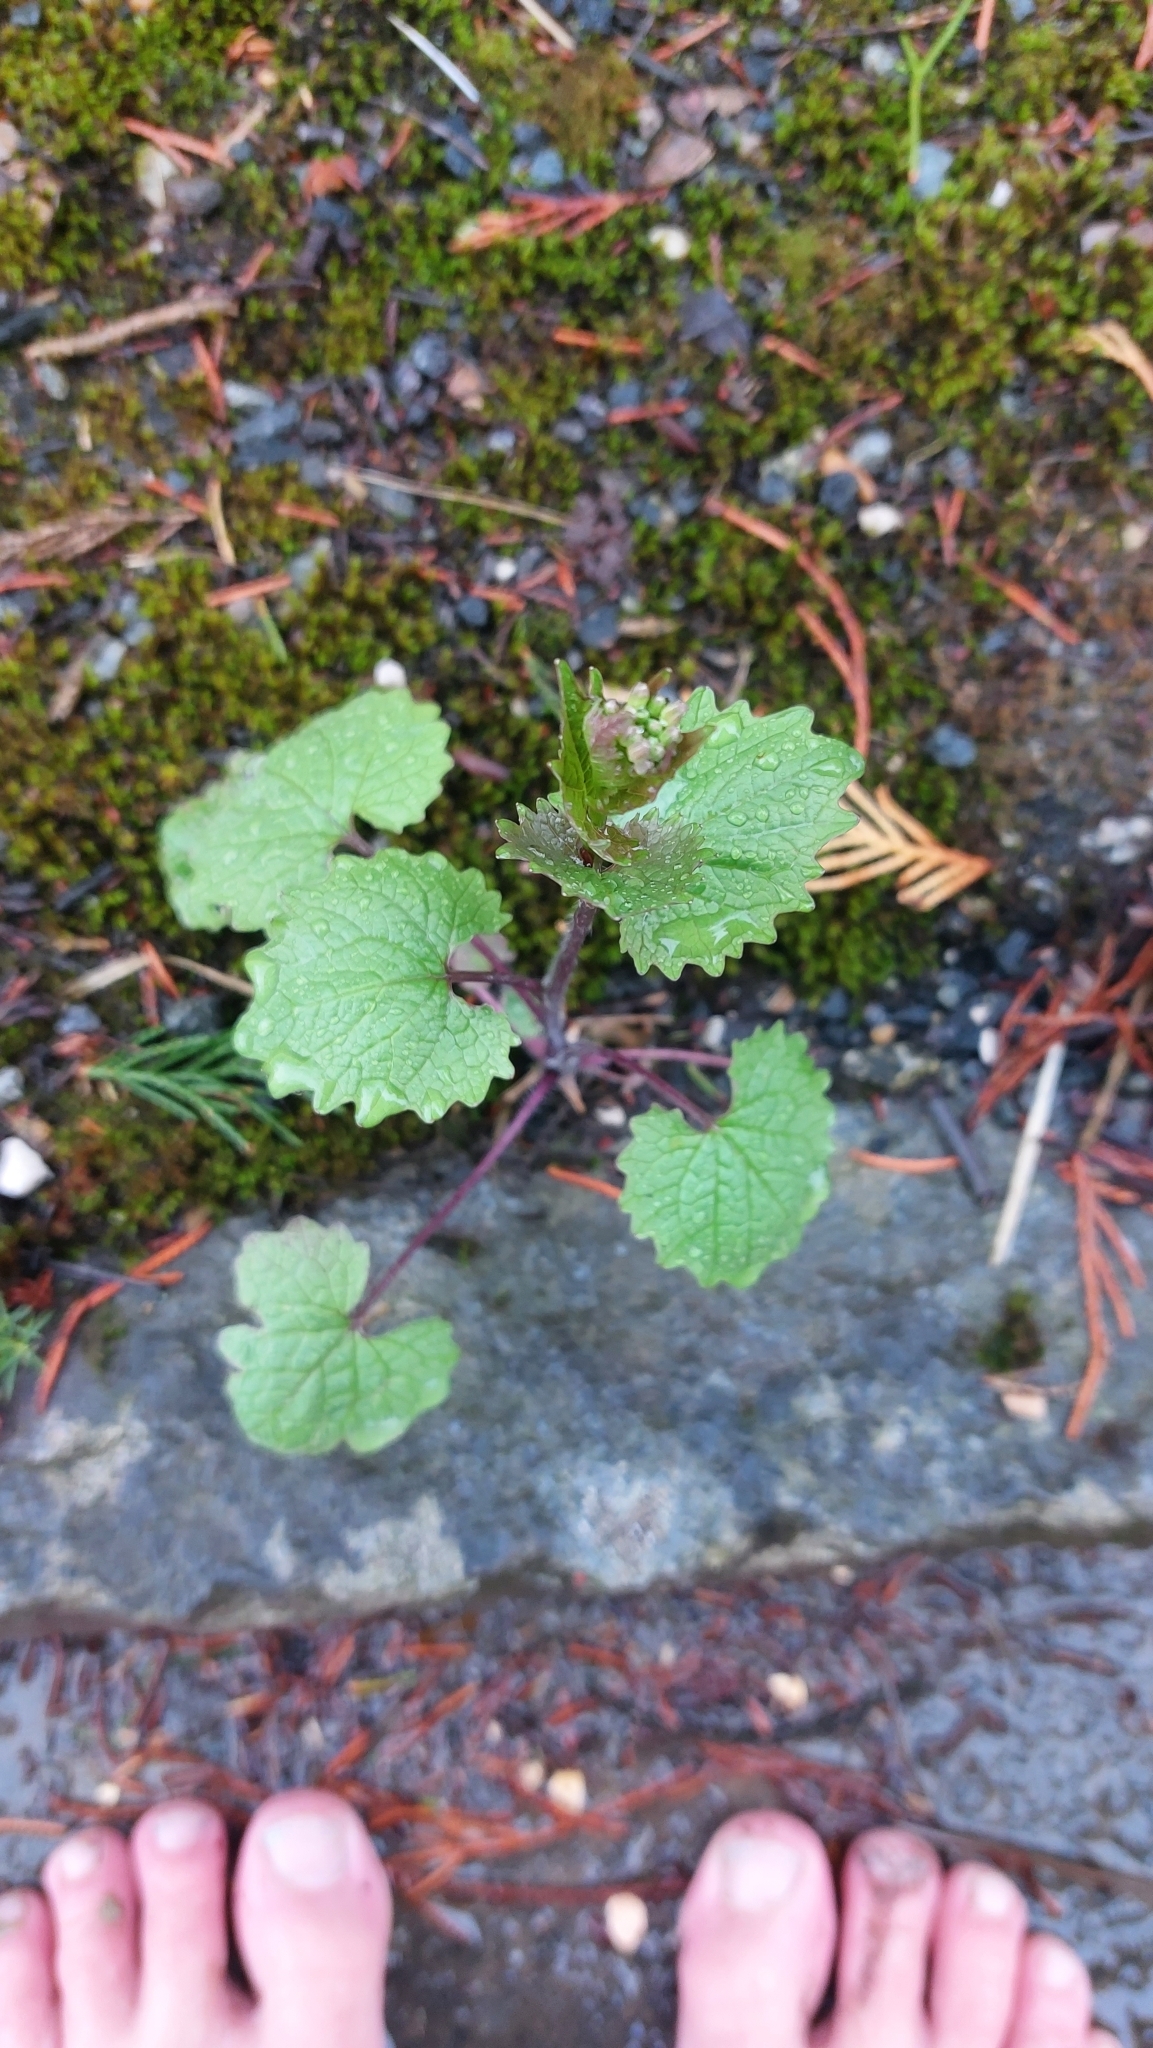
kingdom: Plantae
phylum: Tracheophyta
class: Magnoliopsida
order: Brassicales
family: Brassicaceae
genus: Alliaria
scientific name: Alliaria petiolata
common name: Garlic mustard
